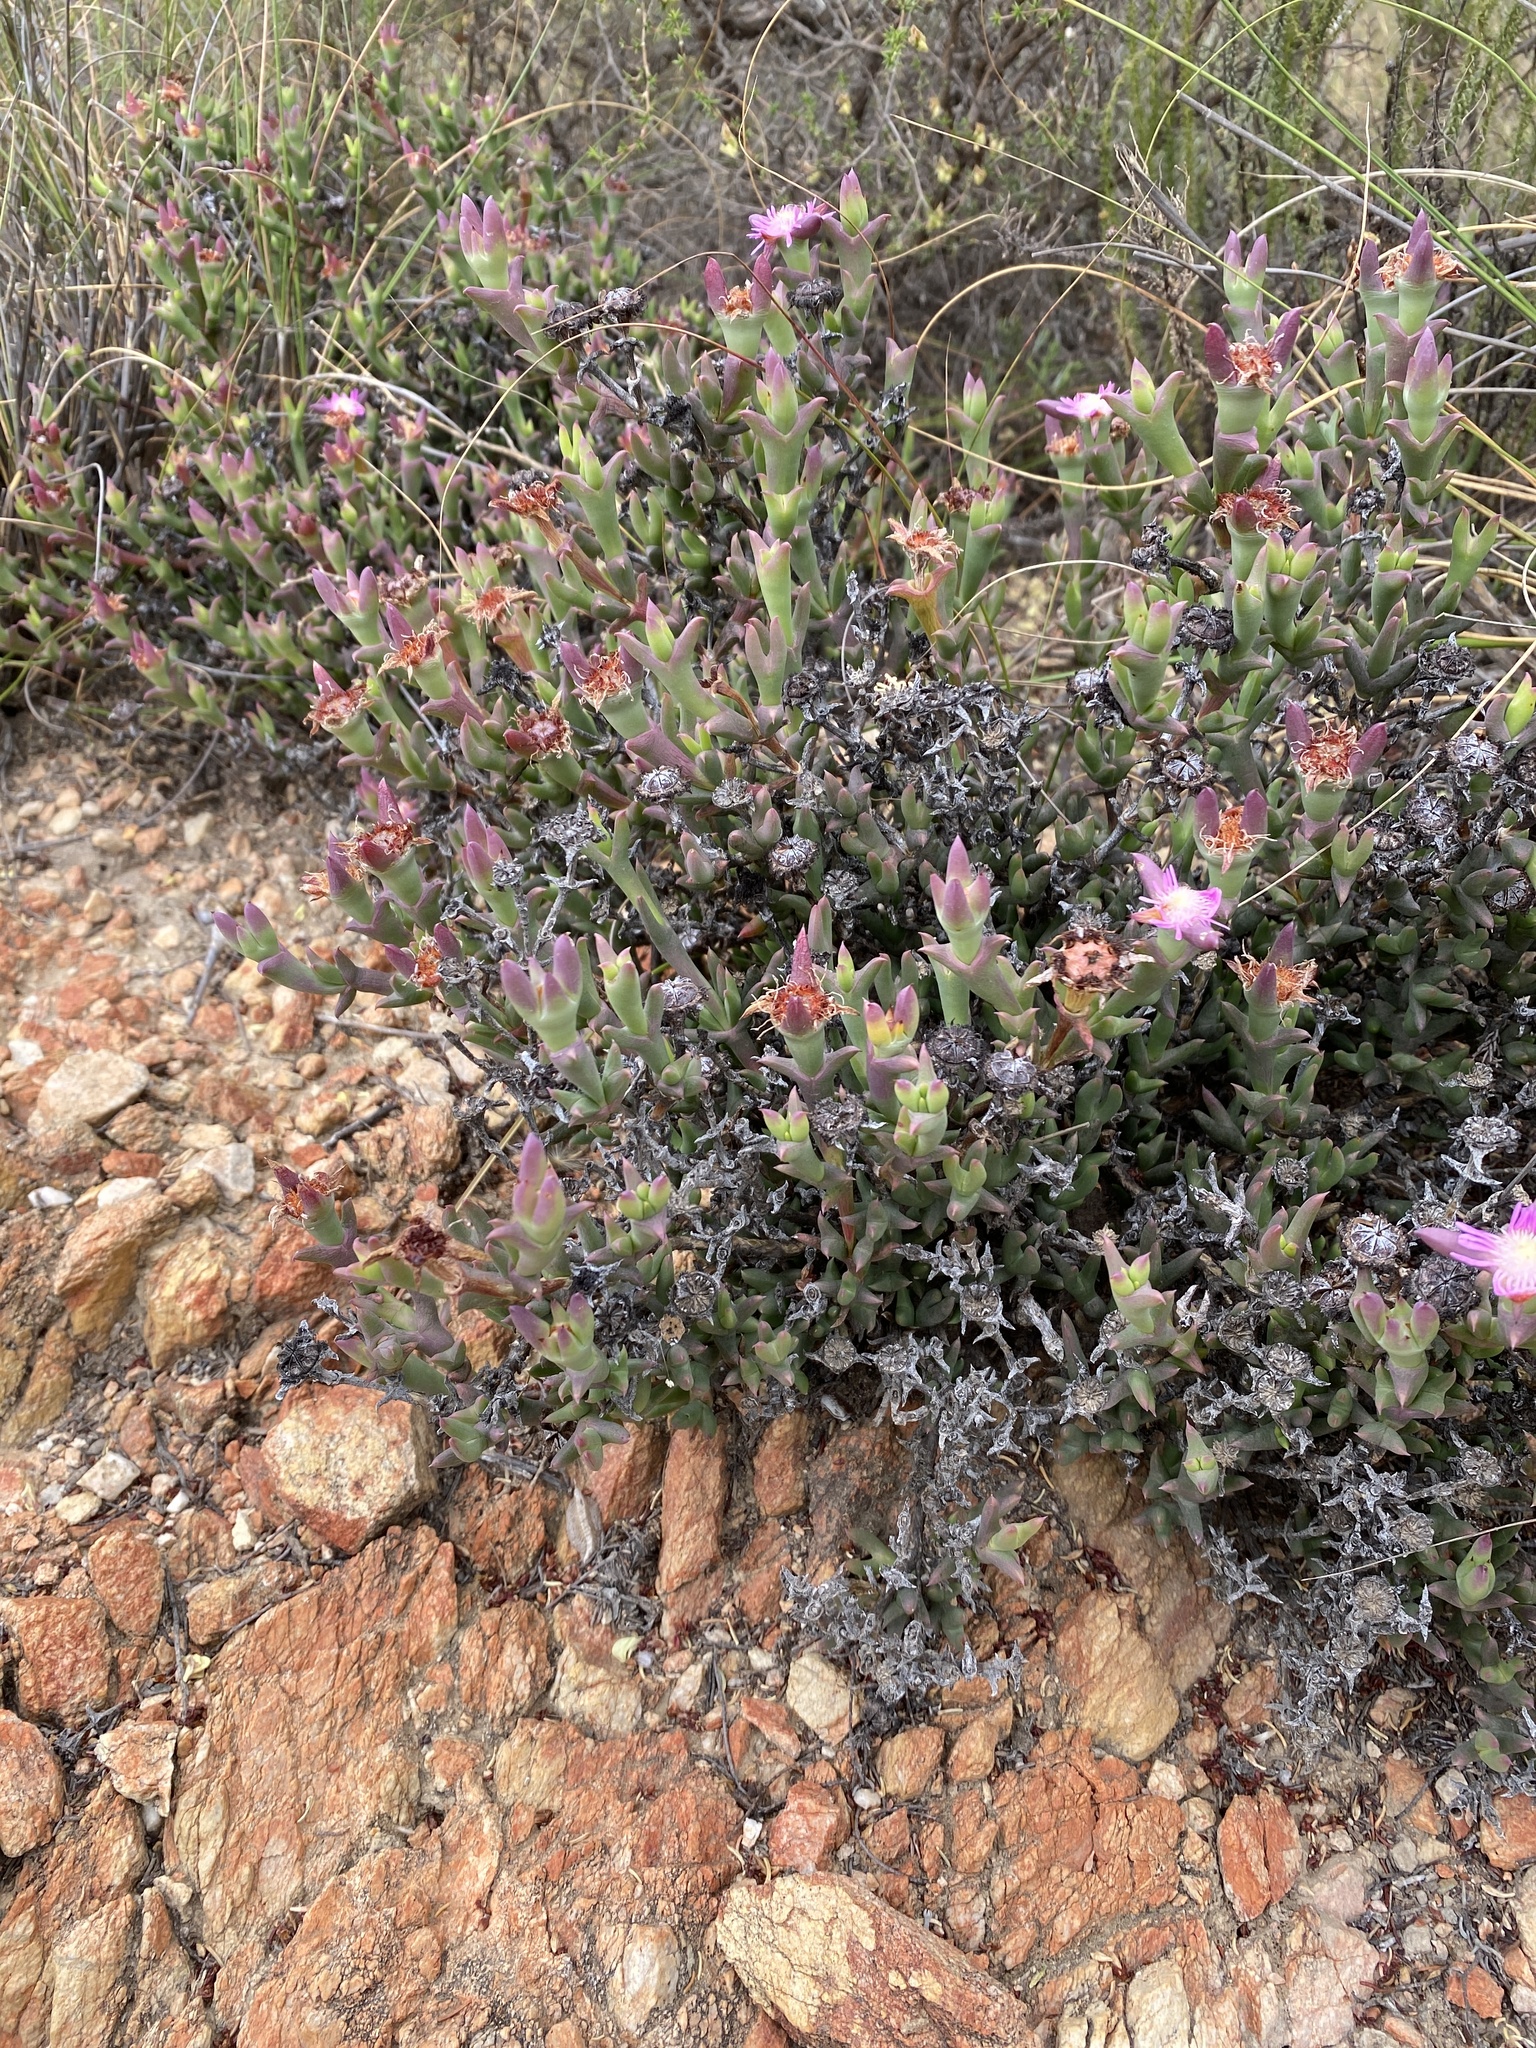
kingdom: Plantae
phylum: Tracheophyta
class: Magnoliopsida
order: Caryophyllales
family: Aizoaceae
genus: Smicrostigma
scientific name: Smicrostigma viride
